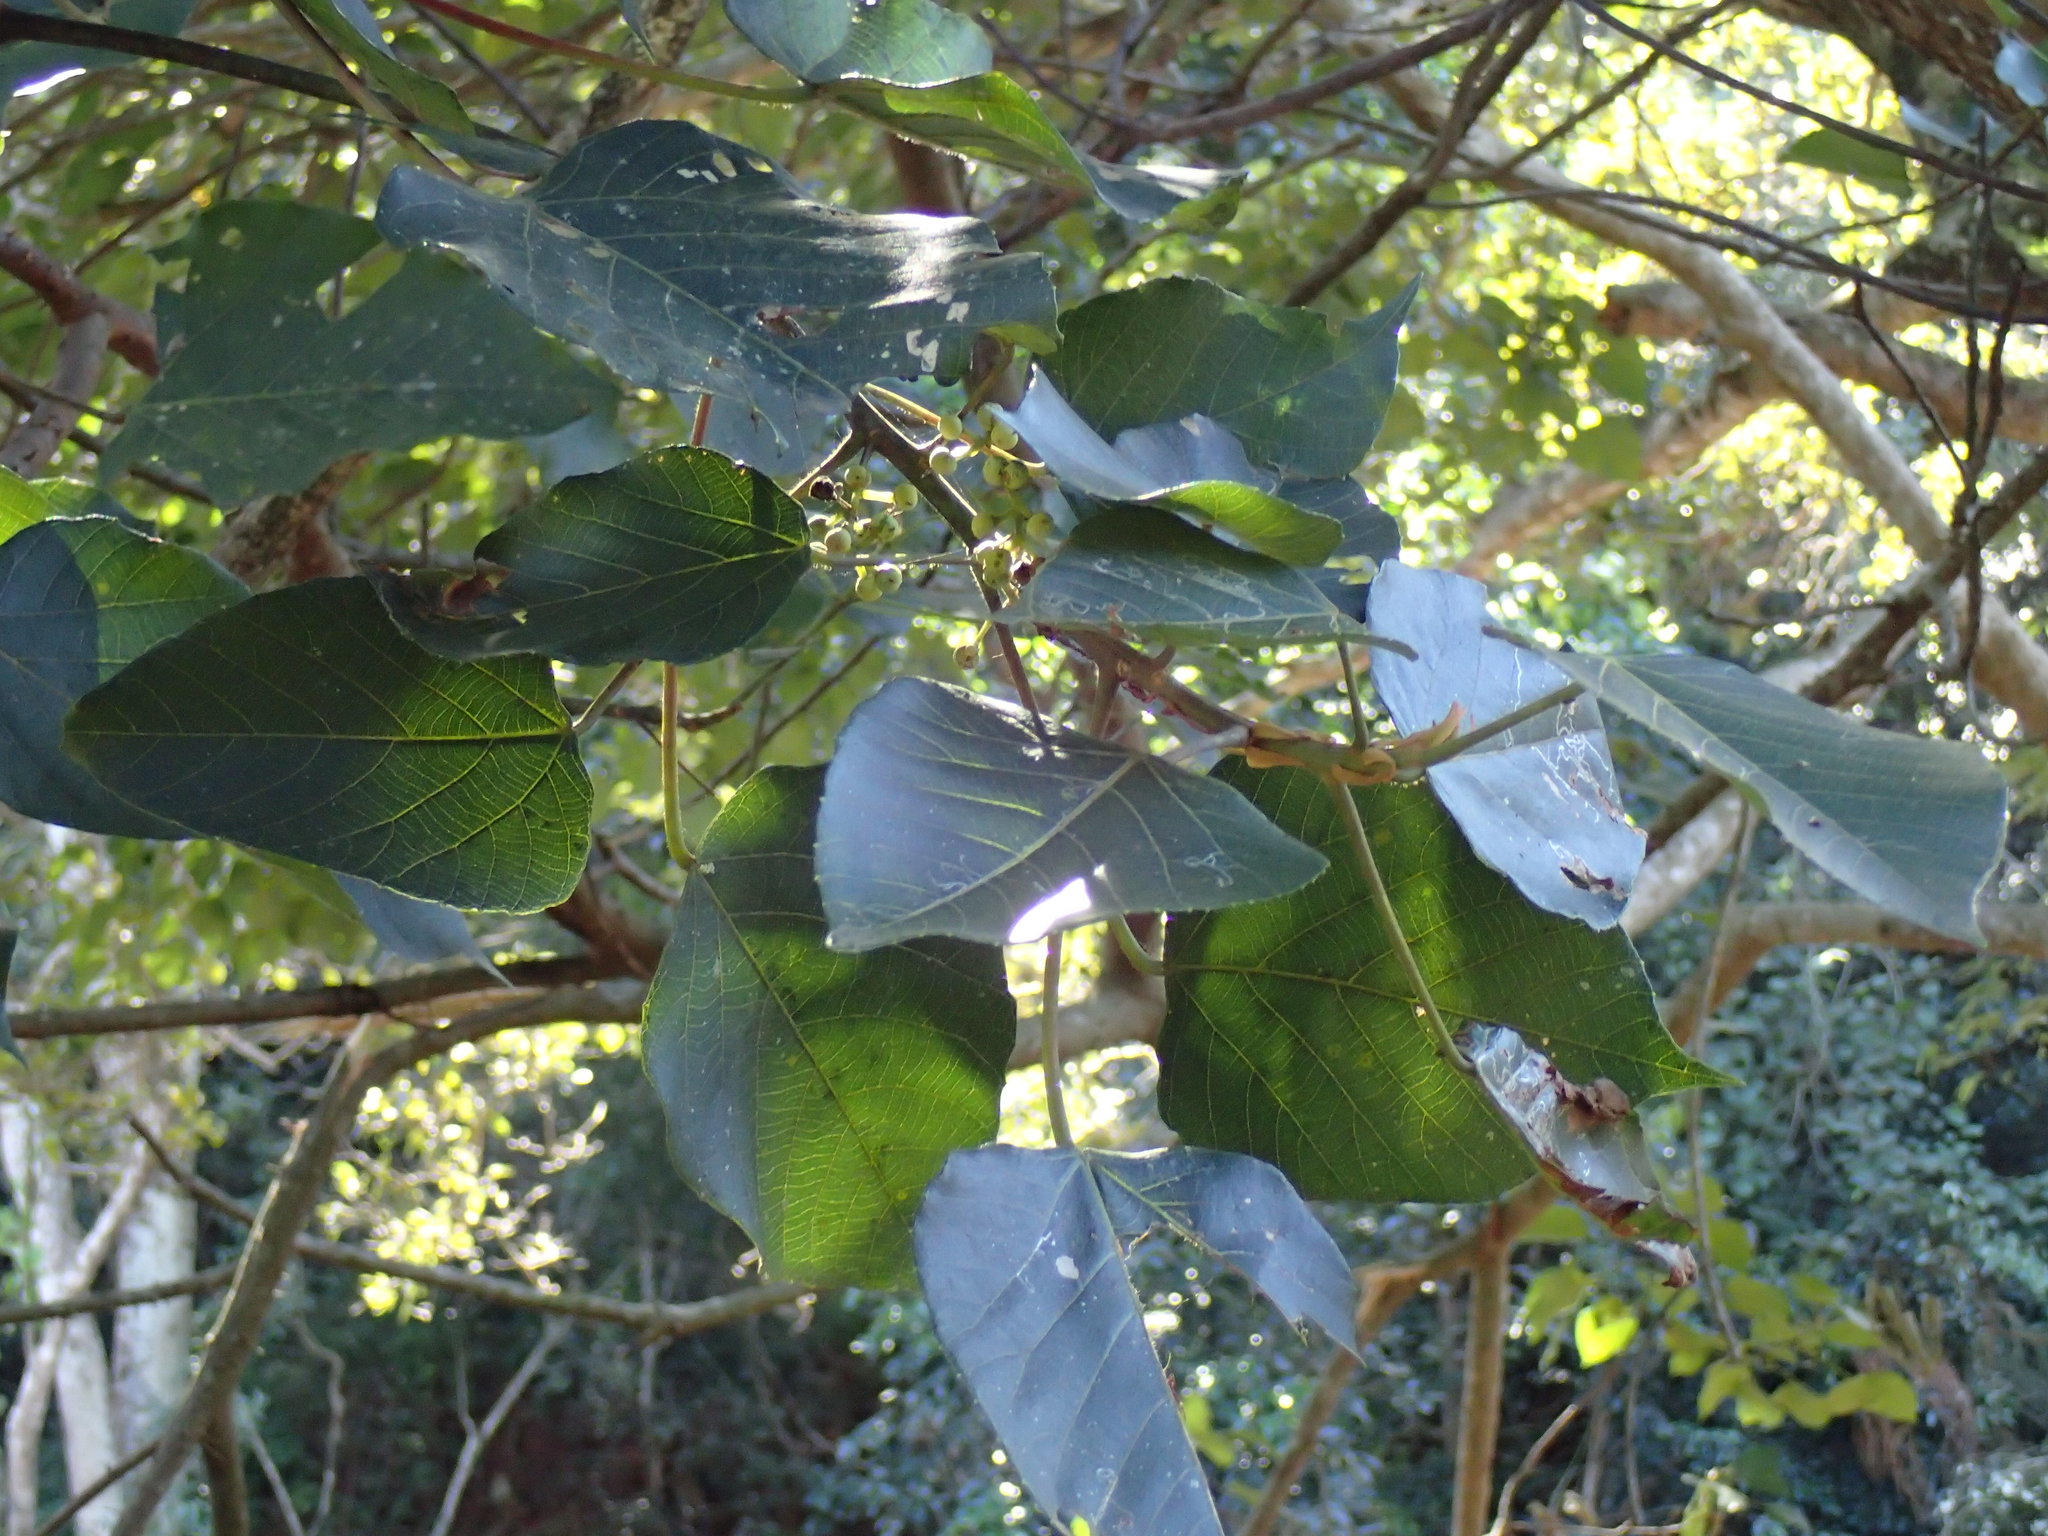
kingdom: Plantae
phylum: Tracheophyta
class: Magnoliopsida
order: Malpighiales
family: Euphorbiaceae
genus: Macaranga
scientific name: Macaranga capensis
